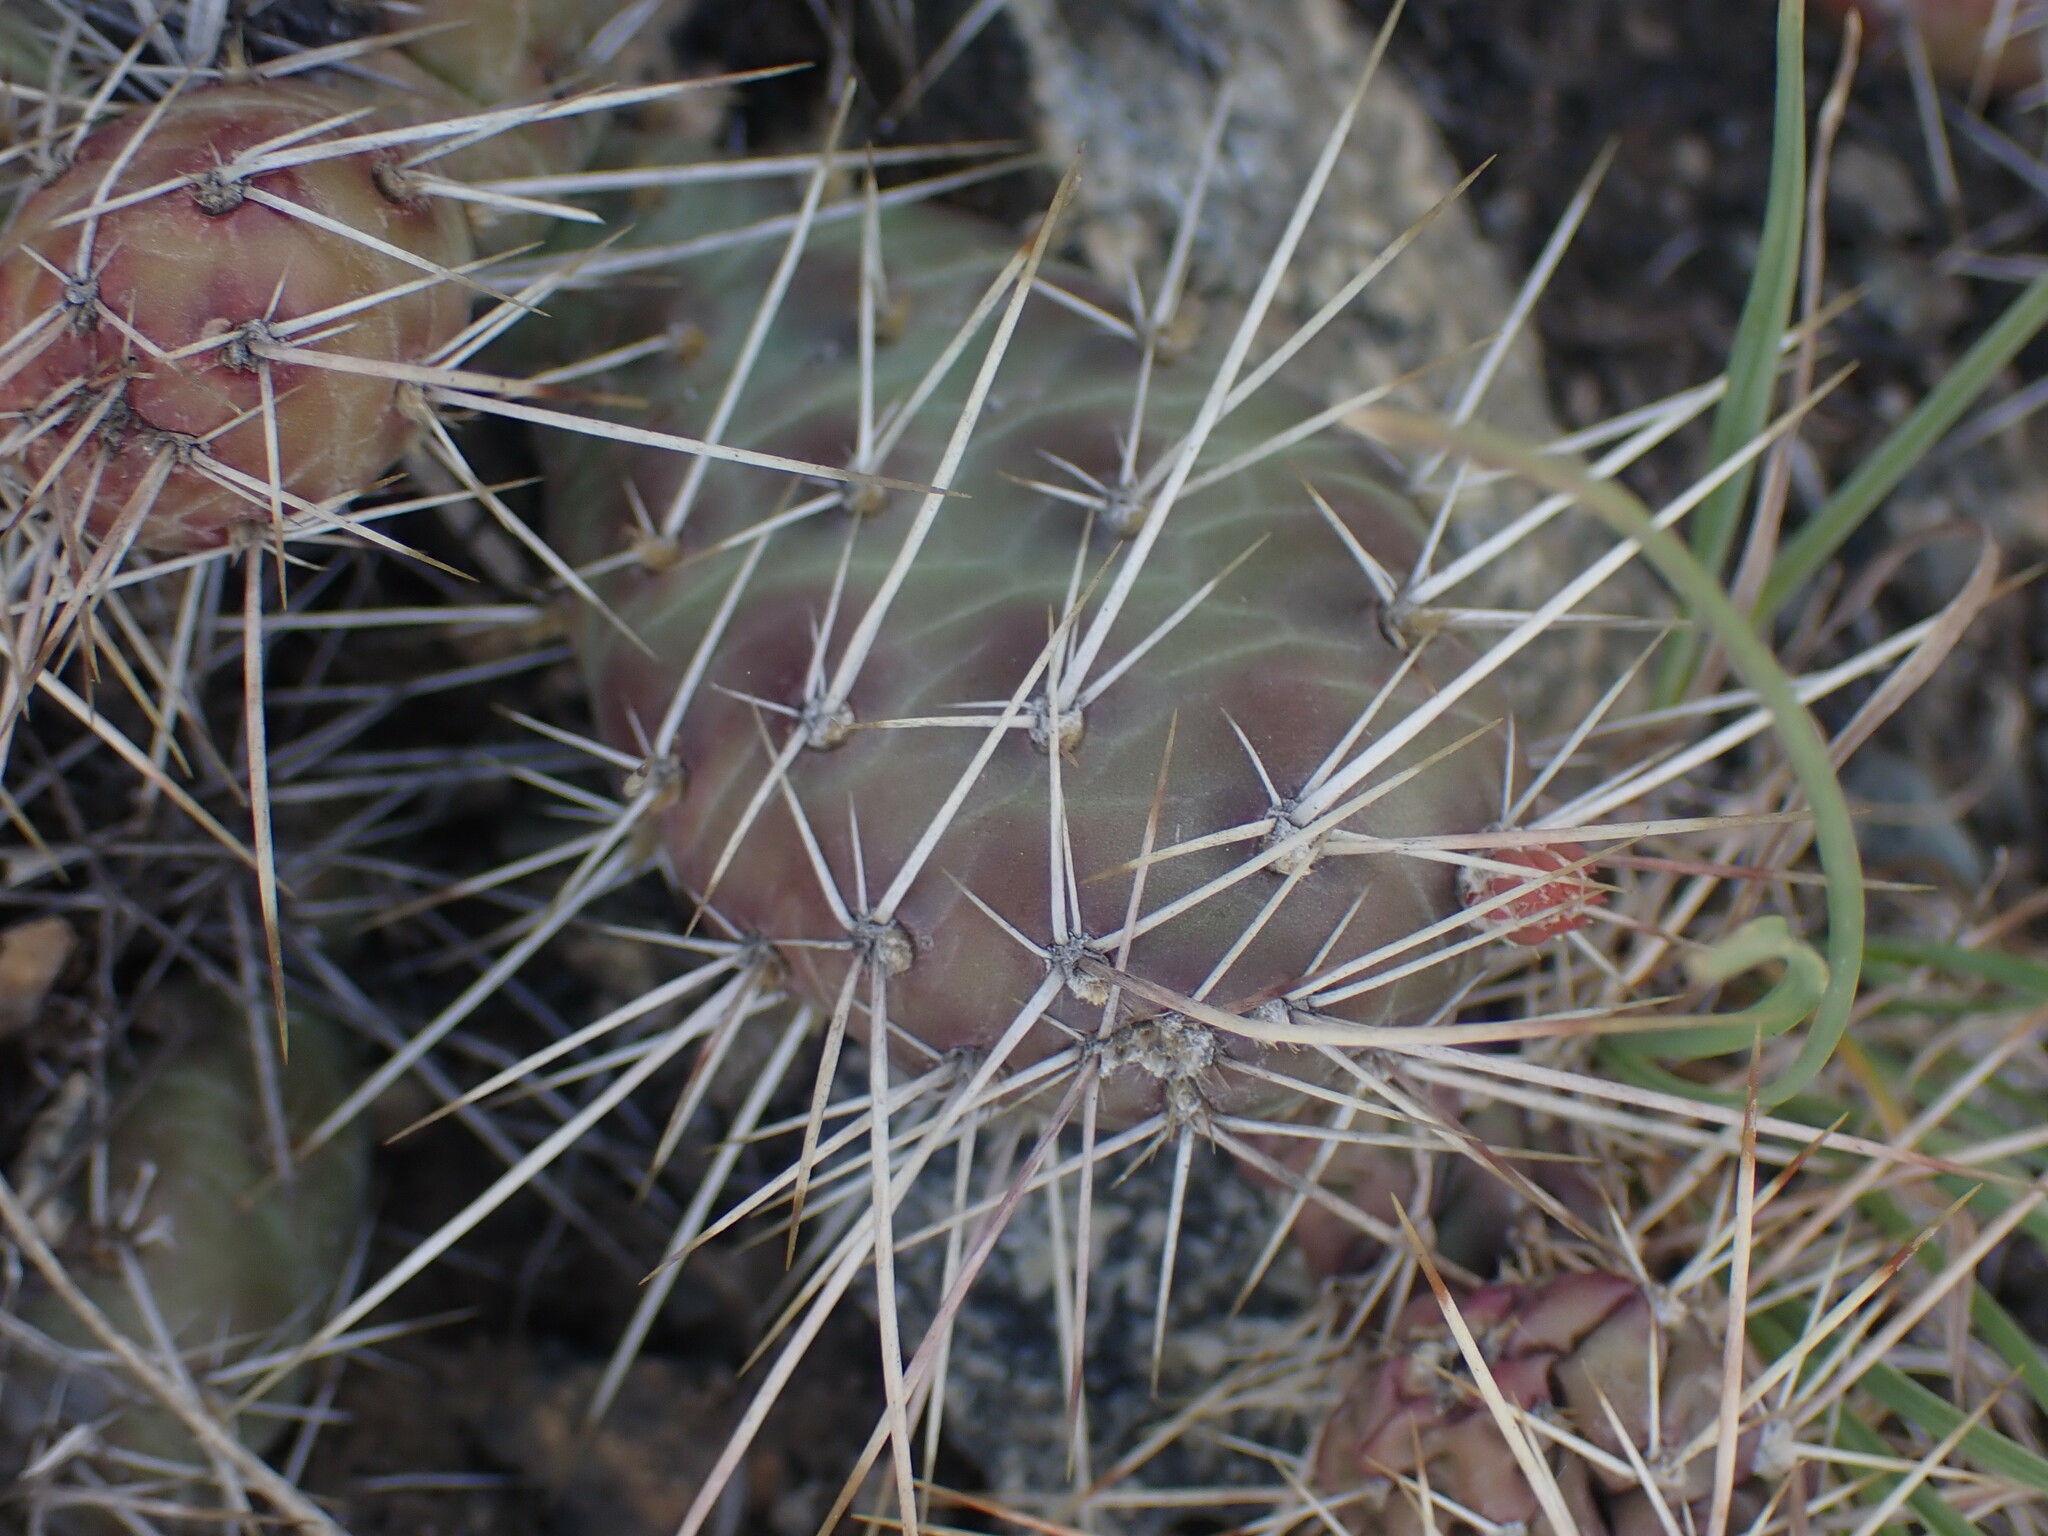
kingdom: Plantae
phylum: Tracheophyta
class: Magnoliopsida
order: Caryophyllales
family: Cactaceae
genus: Opuntia
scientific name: Opuntia fragilis
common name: Brittle cactus
